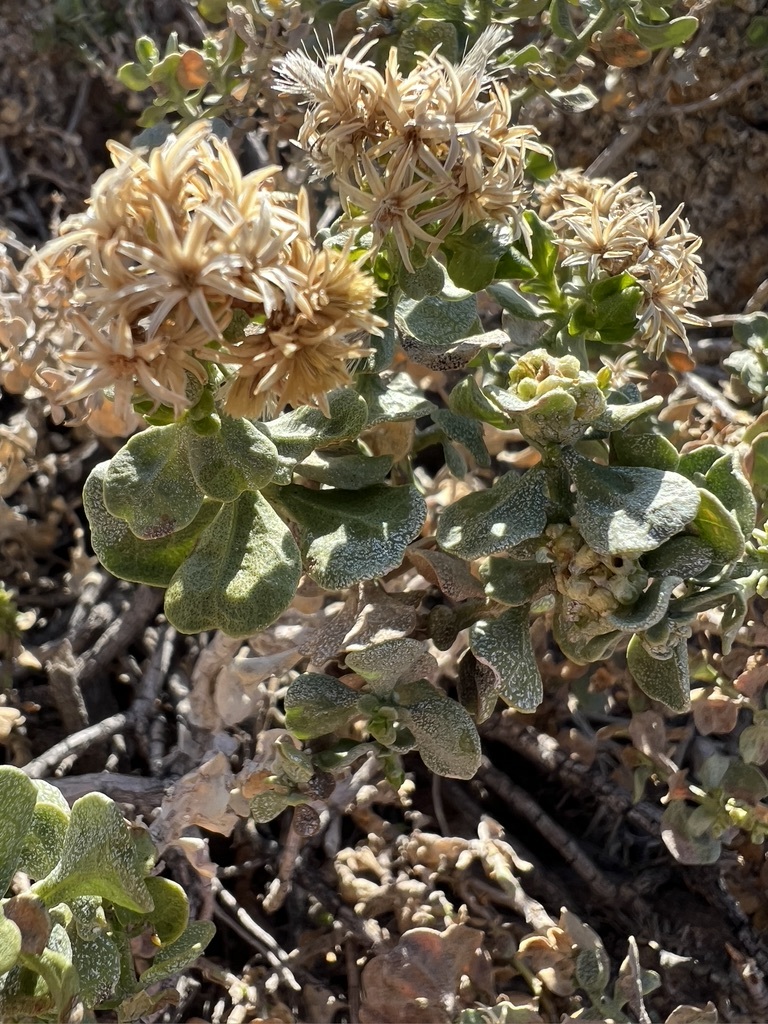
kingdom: Plantae
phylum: Tracheophyta
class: Magnoliopsida
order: Asterales
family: Asteraceae
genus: Ericameria
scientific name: Ericameria cuneata
